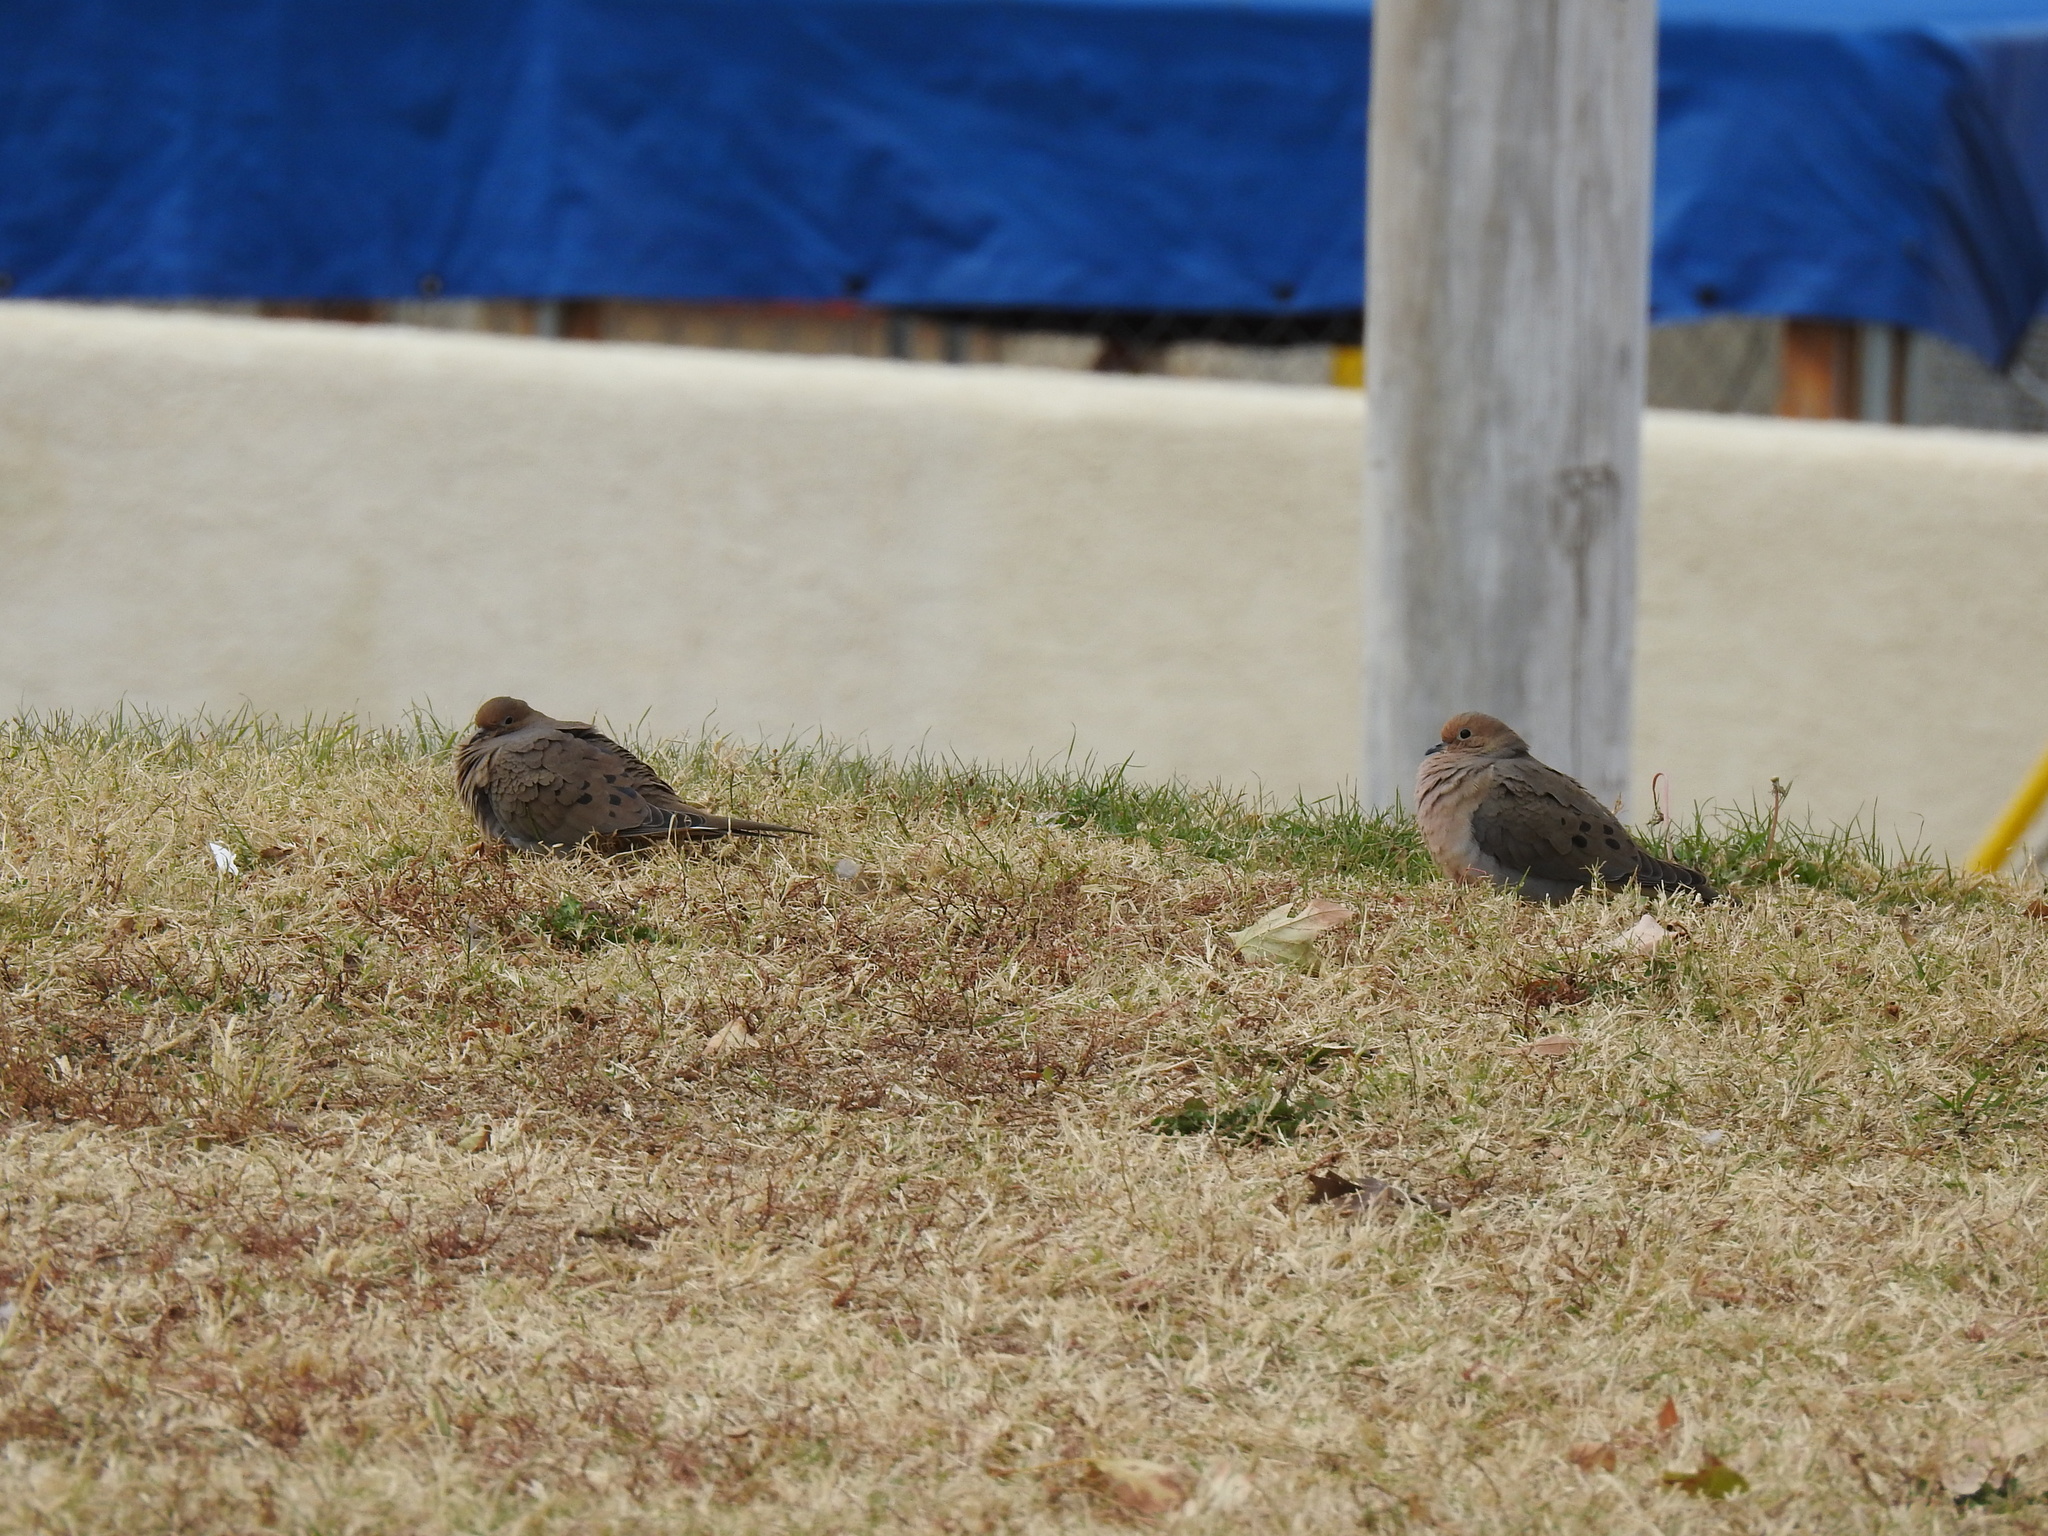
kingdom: Animalia
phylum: Chordata
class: Aves
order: Columbiformes
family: Columbidae
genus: Zenaida
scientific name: Zenaida macroura
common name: Mourning dove
